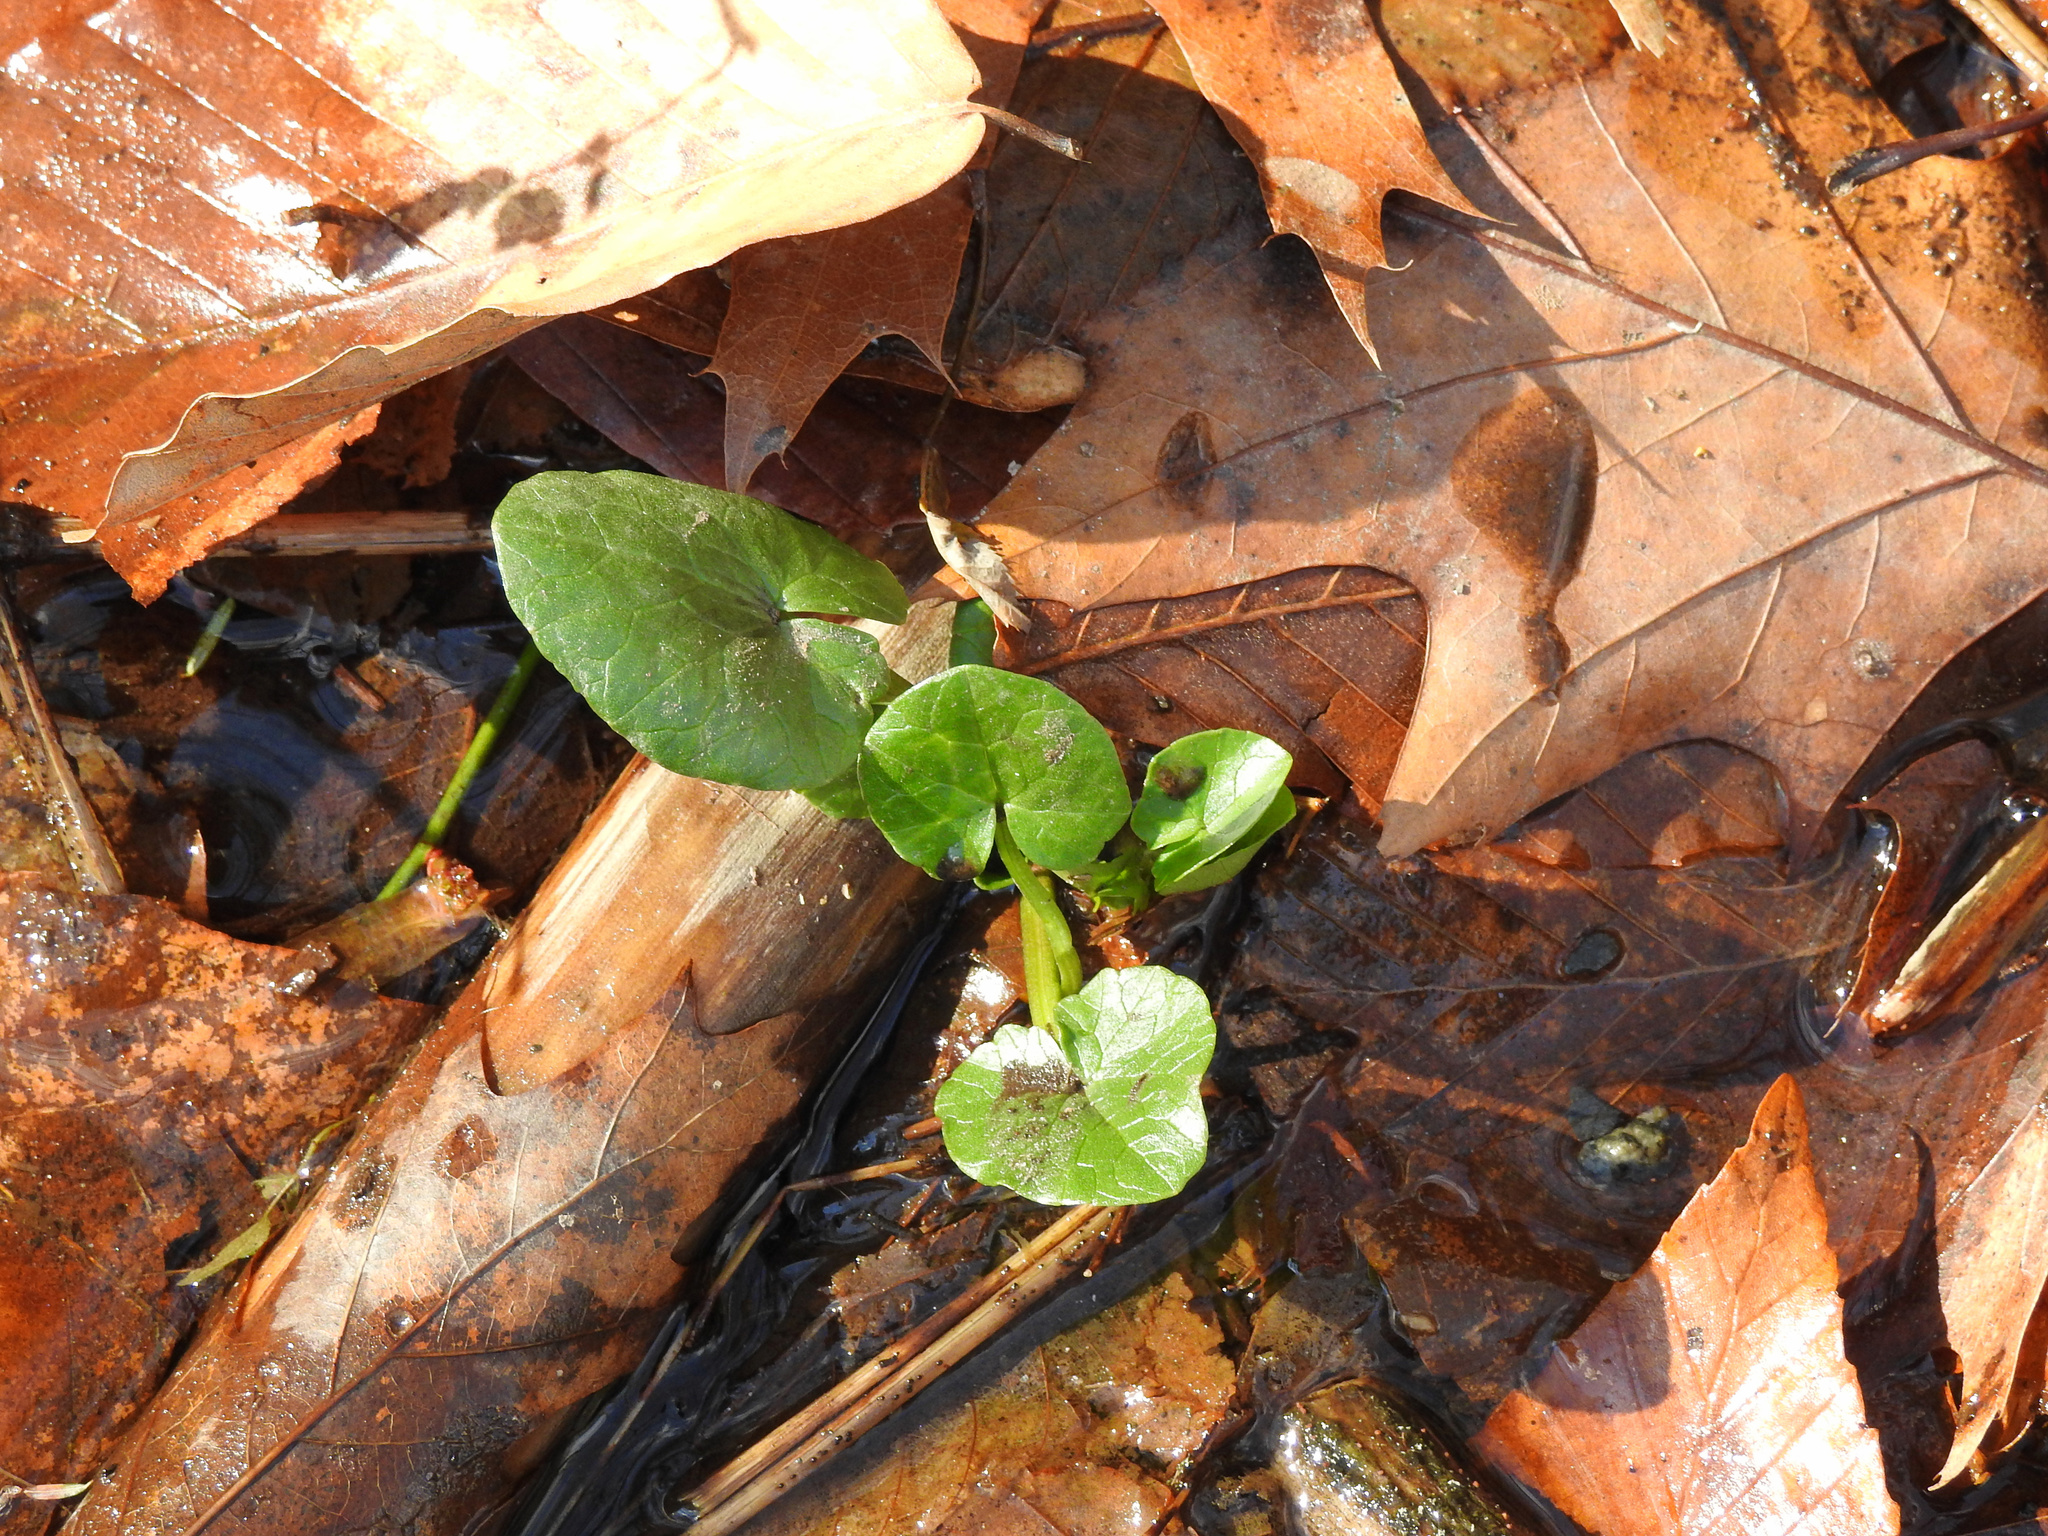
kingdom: Plantae
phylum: Tracheophyta
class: Magnoliopsida
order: Ranunculales
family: Ranunculaceae
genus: Ficaria
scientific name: Ficaria verna
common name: Lesser celandine
